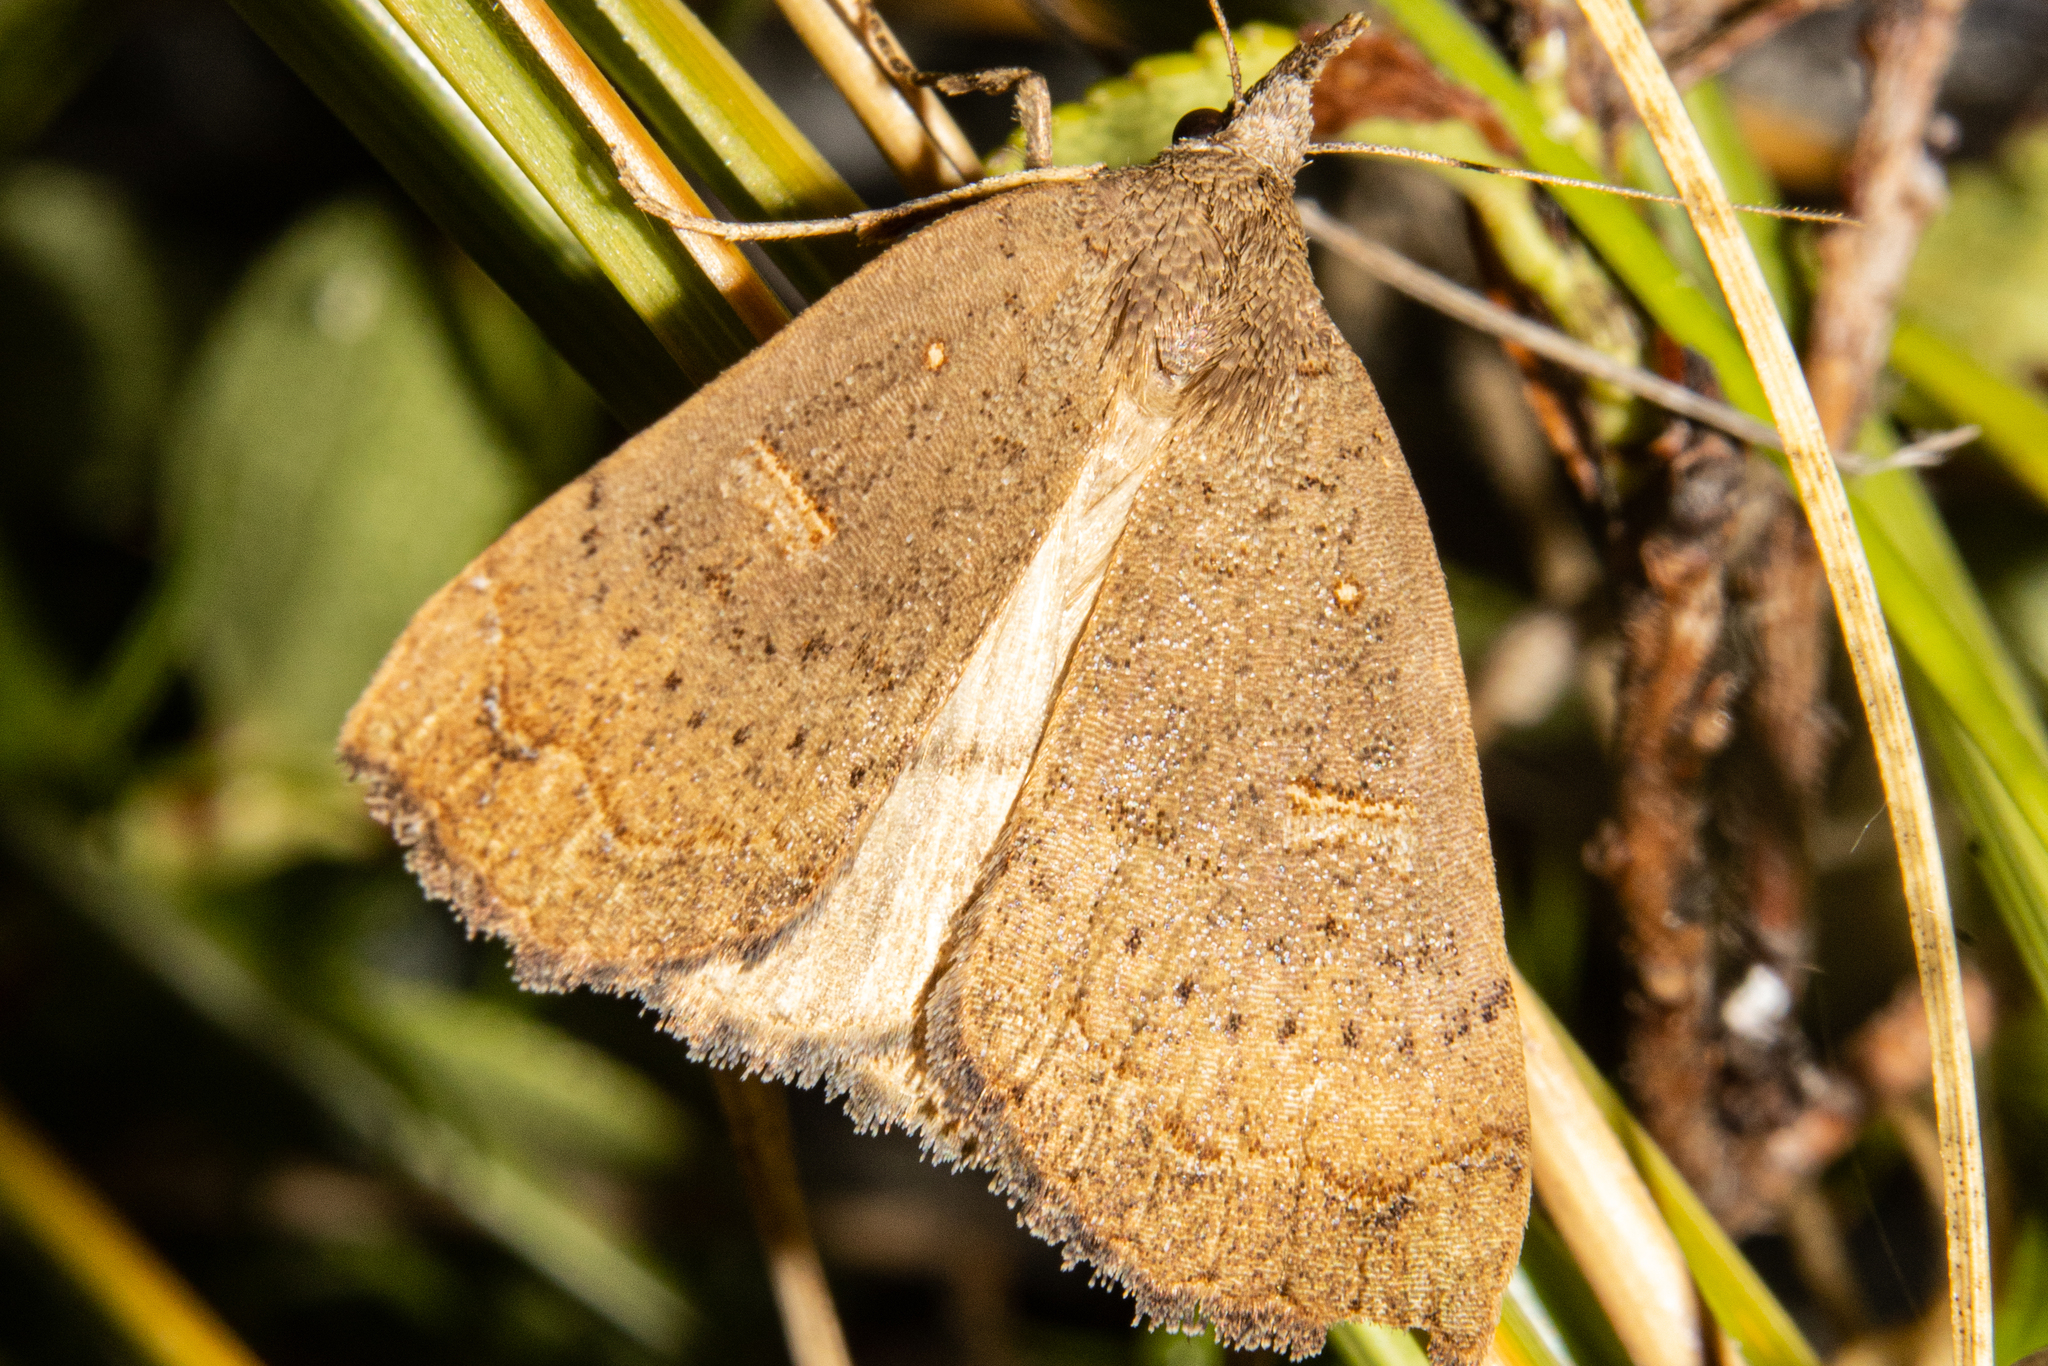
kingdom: Animalia
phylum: Arthropoda
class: Insecta
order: Lepidoptera
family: Erebidae
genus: Rhapsa
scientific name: Rhapsa scotosialis
